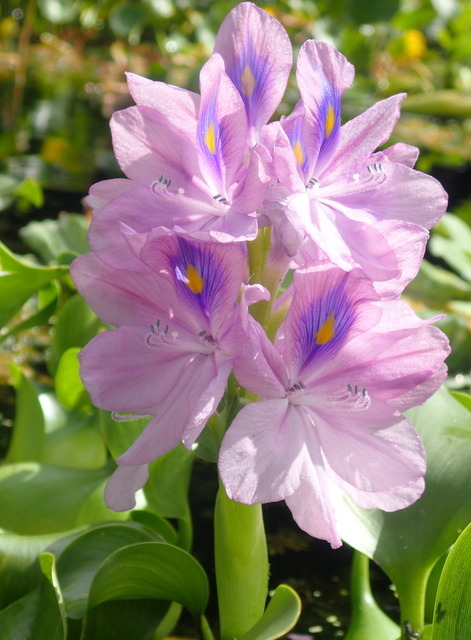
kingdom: Plantae
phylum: Tracheophyta
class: Liliopsida
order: Commelinales
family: Pontederiaceae
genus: Pontederia
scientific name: Pontederia crassipes
